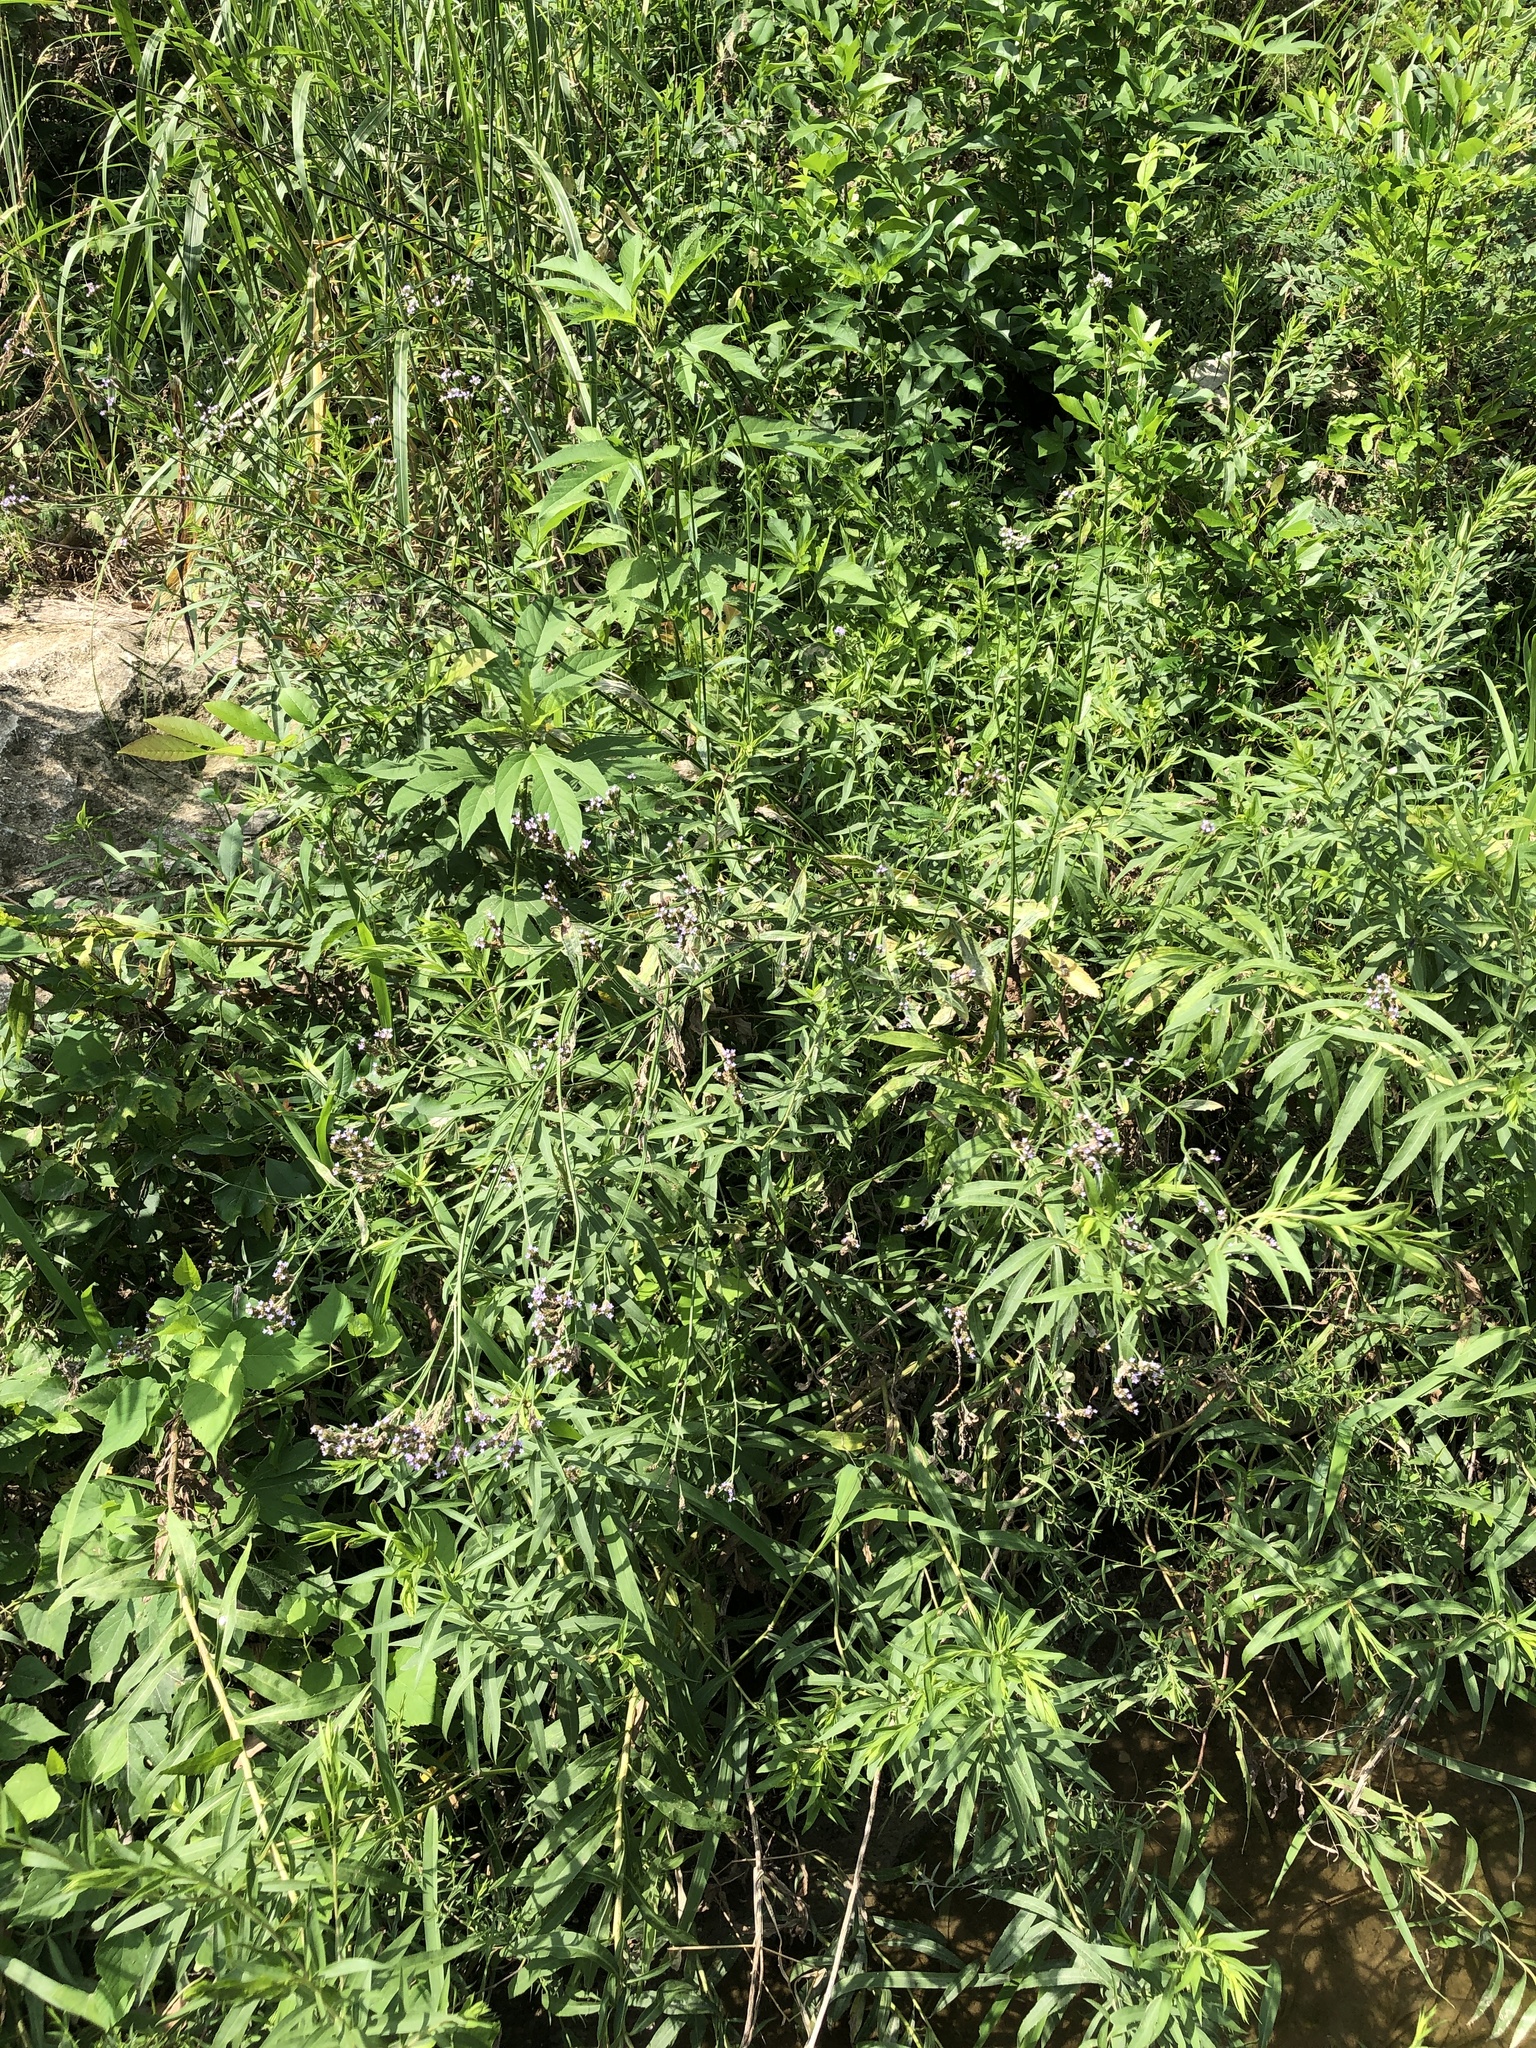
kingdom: Plantae
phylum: Tracheophyta
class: Magnoliopsida
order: Lamiales
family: Verbenaceae
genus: Verbena
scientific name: Verbena brasiliensis
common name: Brazilian vervain
